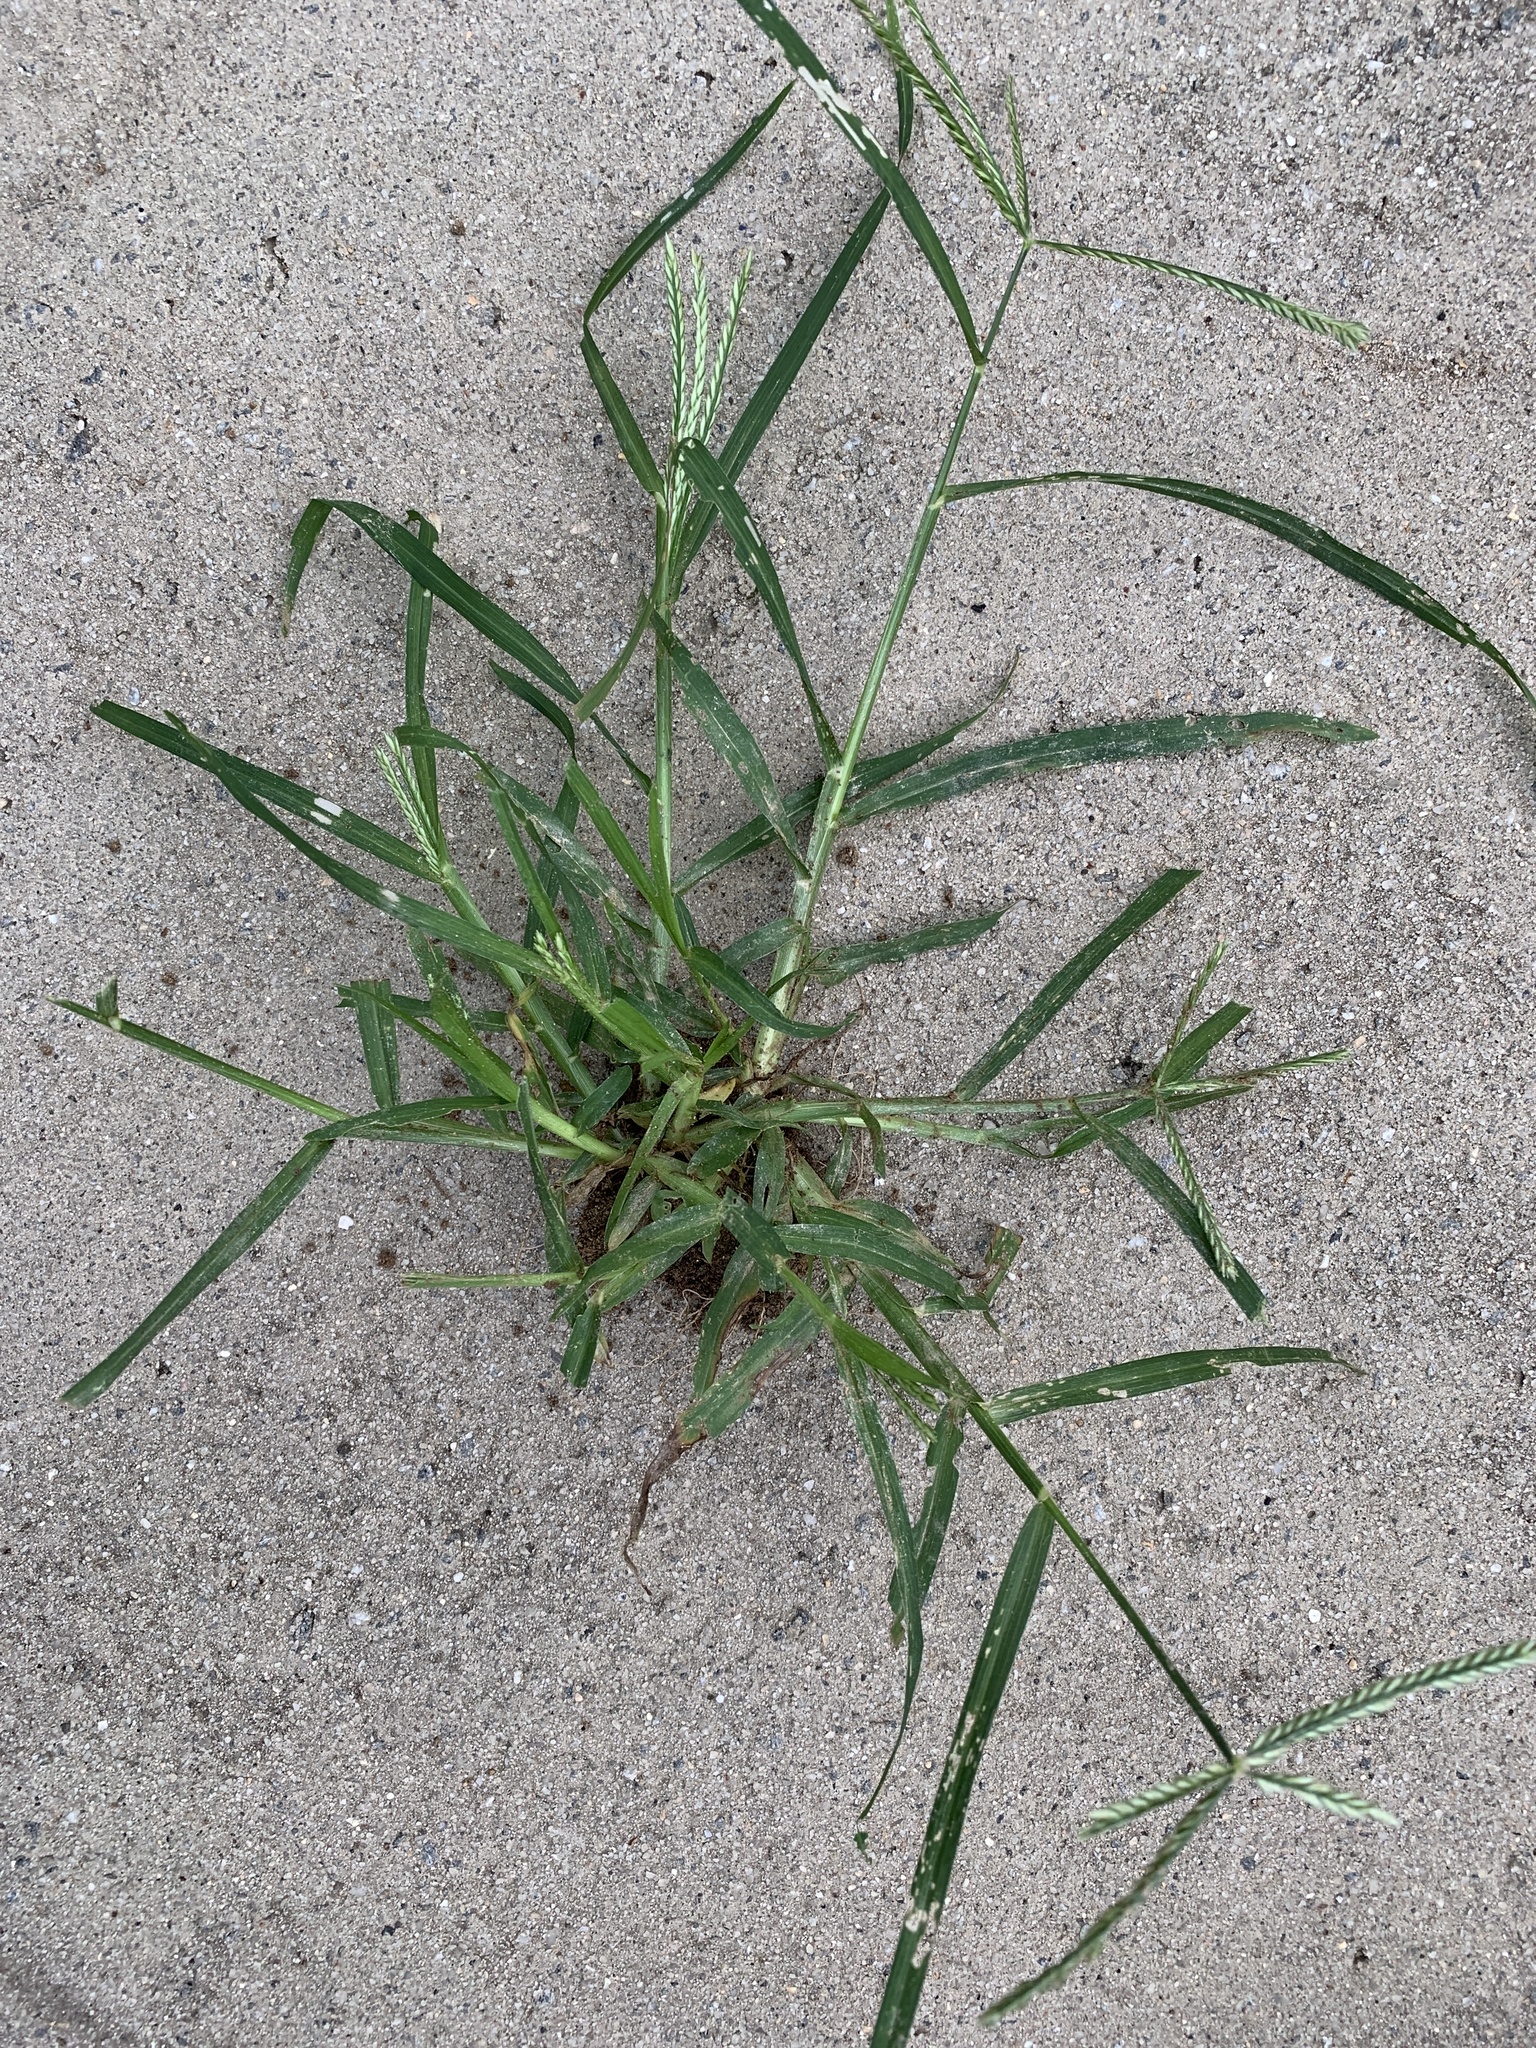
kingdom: Plantae
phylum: Tracheophyta
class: Liliopsida
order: Poales
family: Poaceae
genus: Eleusine
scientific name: Eleusine indica
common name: Yard-grass
